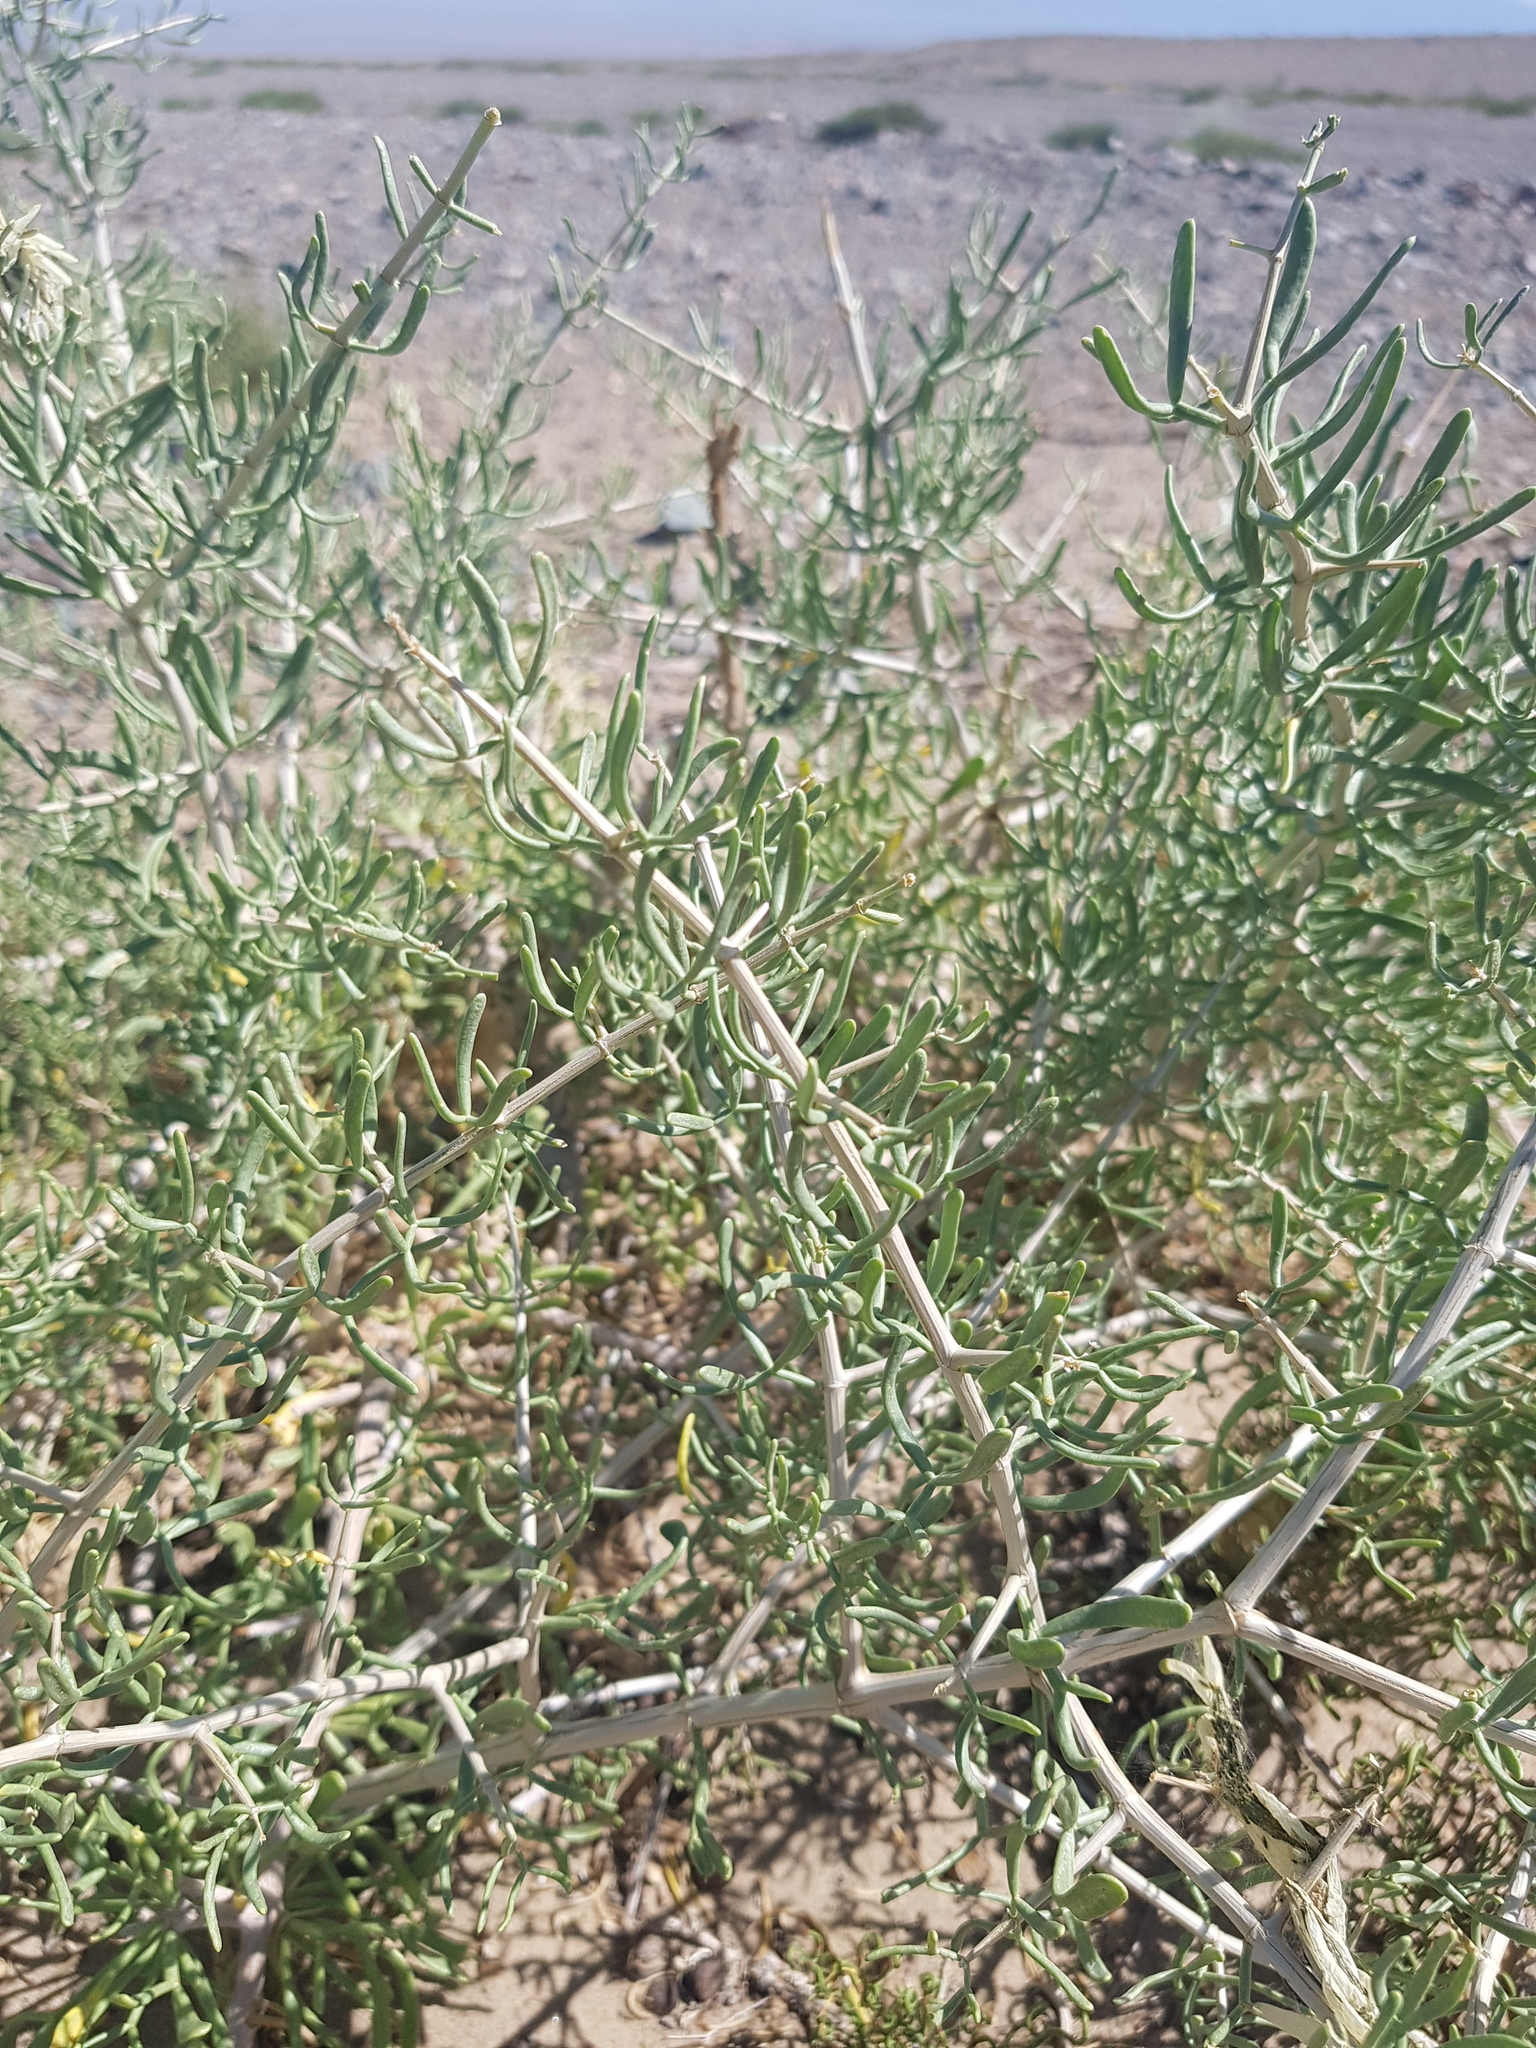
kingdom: Plantae
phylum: Tracheophyta
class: Magnoliopsida
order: Zygophyllales
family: Zygophyllaceae
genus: Zygophyllum
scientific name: Zygophyllum xanthoxylum
